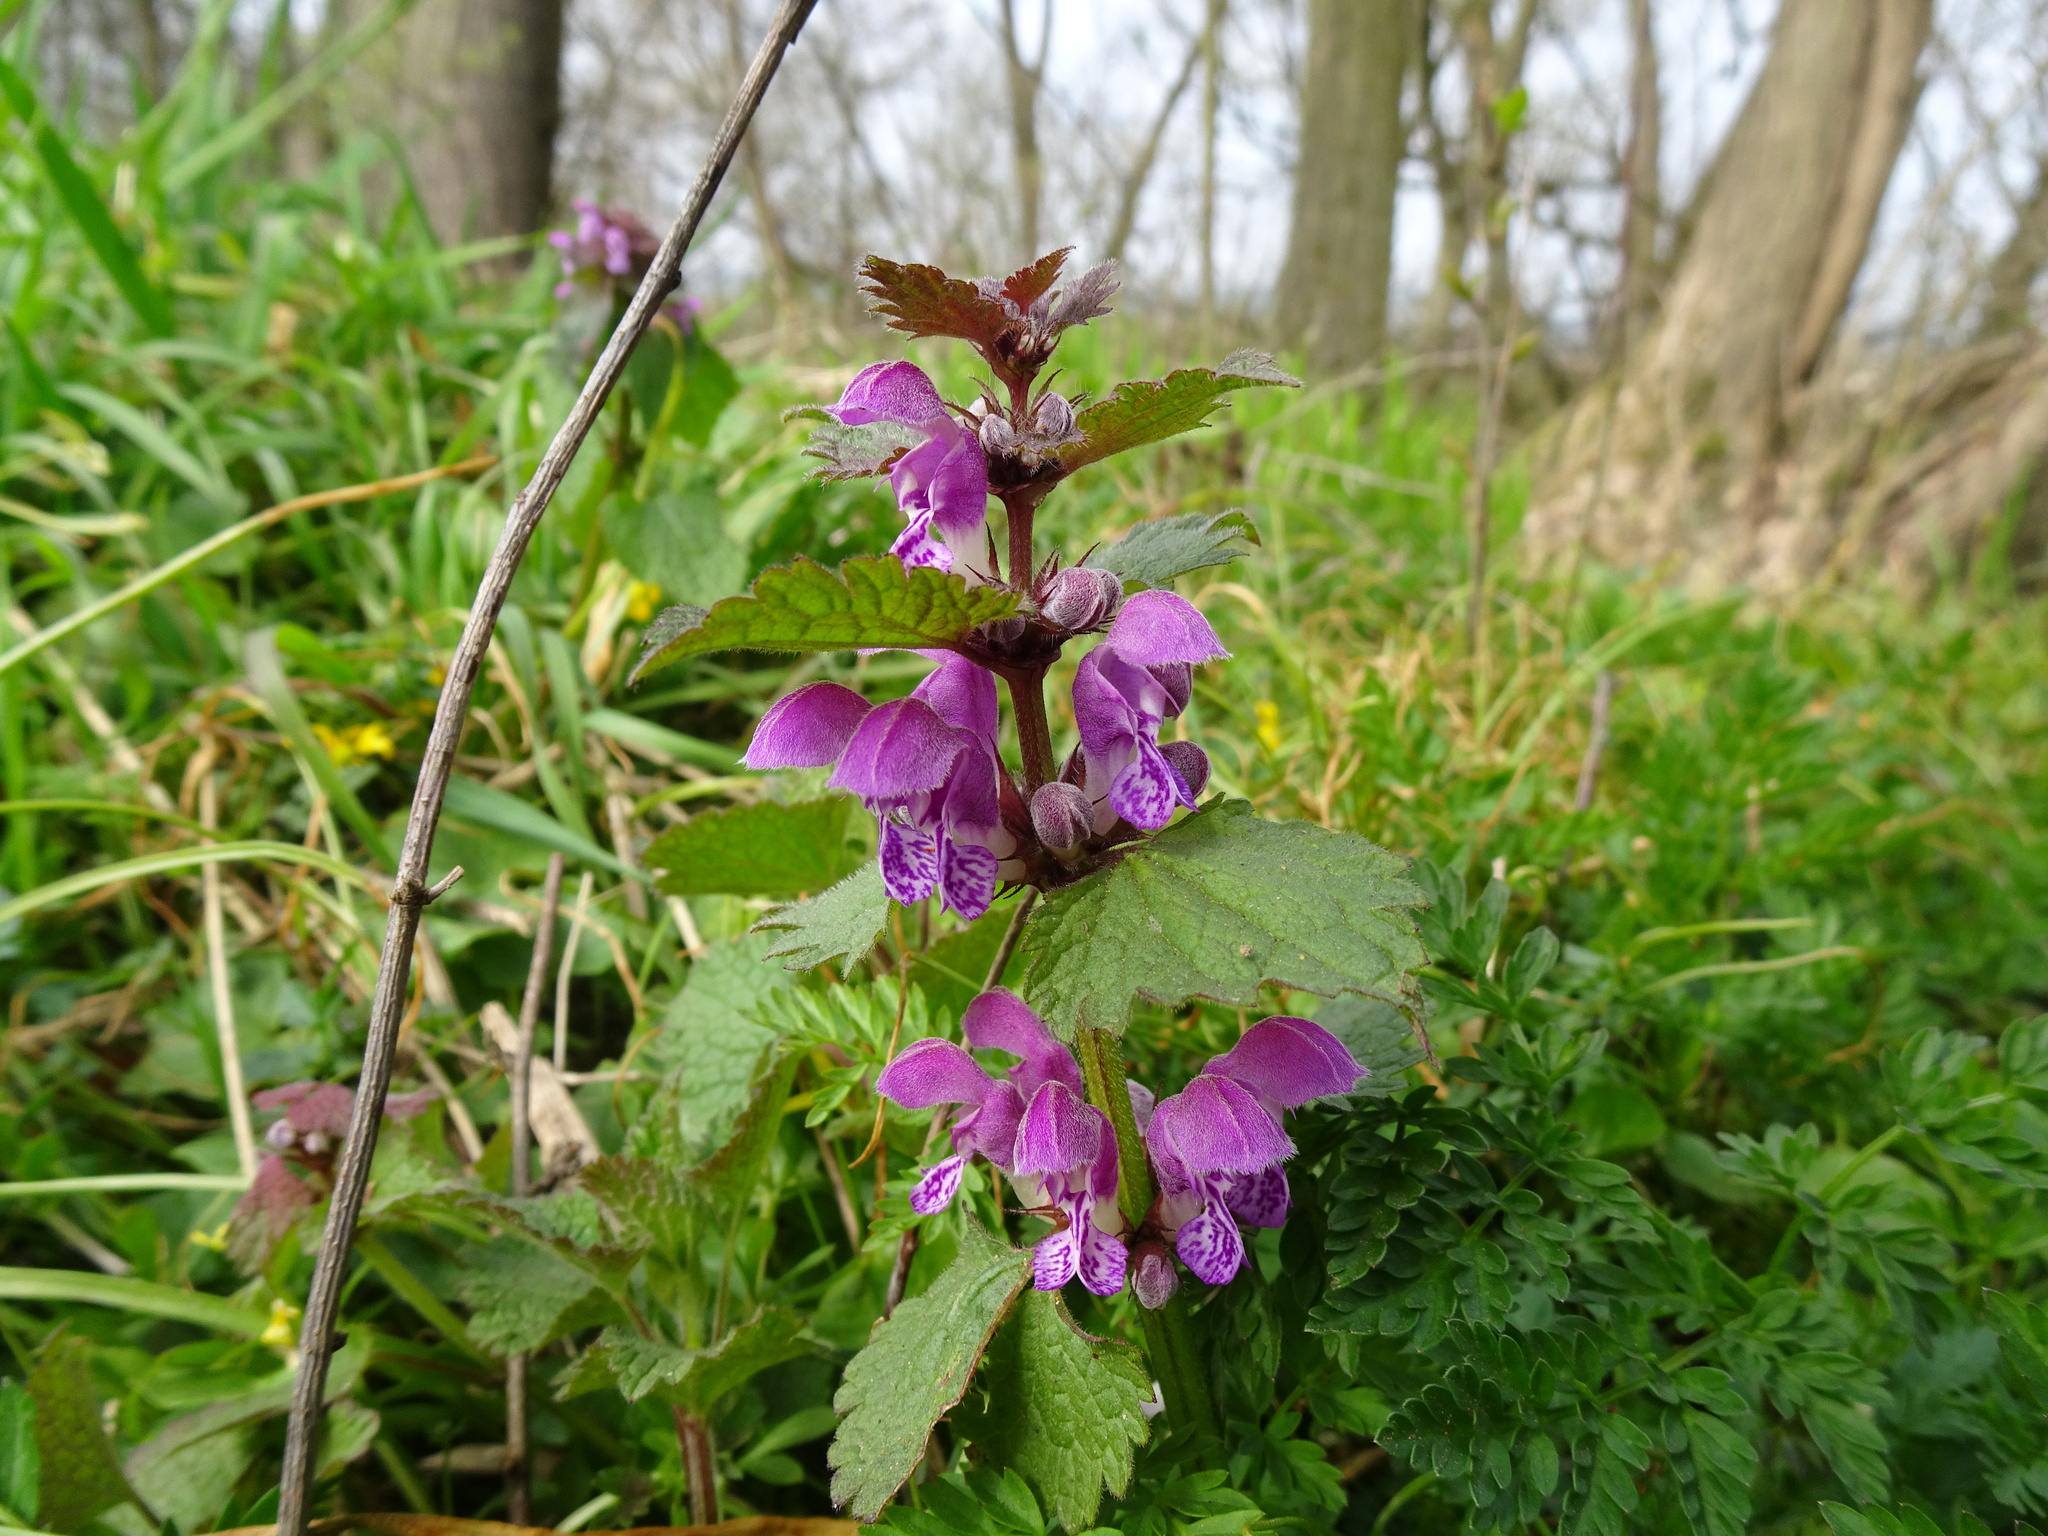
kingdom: Plantae
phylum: Tracheophyta
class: Magnoliopsida
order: Lamiales
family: Lamiaceae
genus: Lamium
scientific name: Lamium maculatum
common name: Spotted dead-nettle
